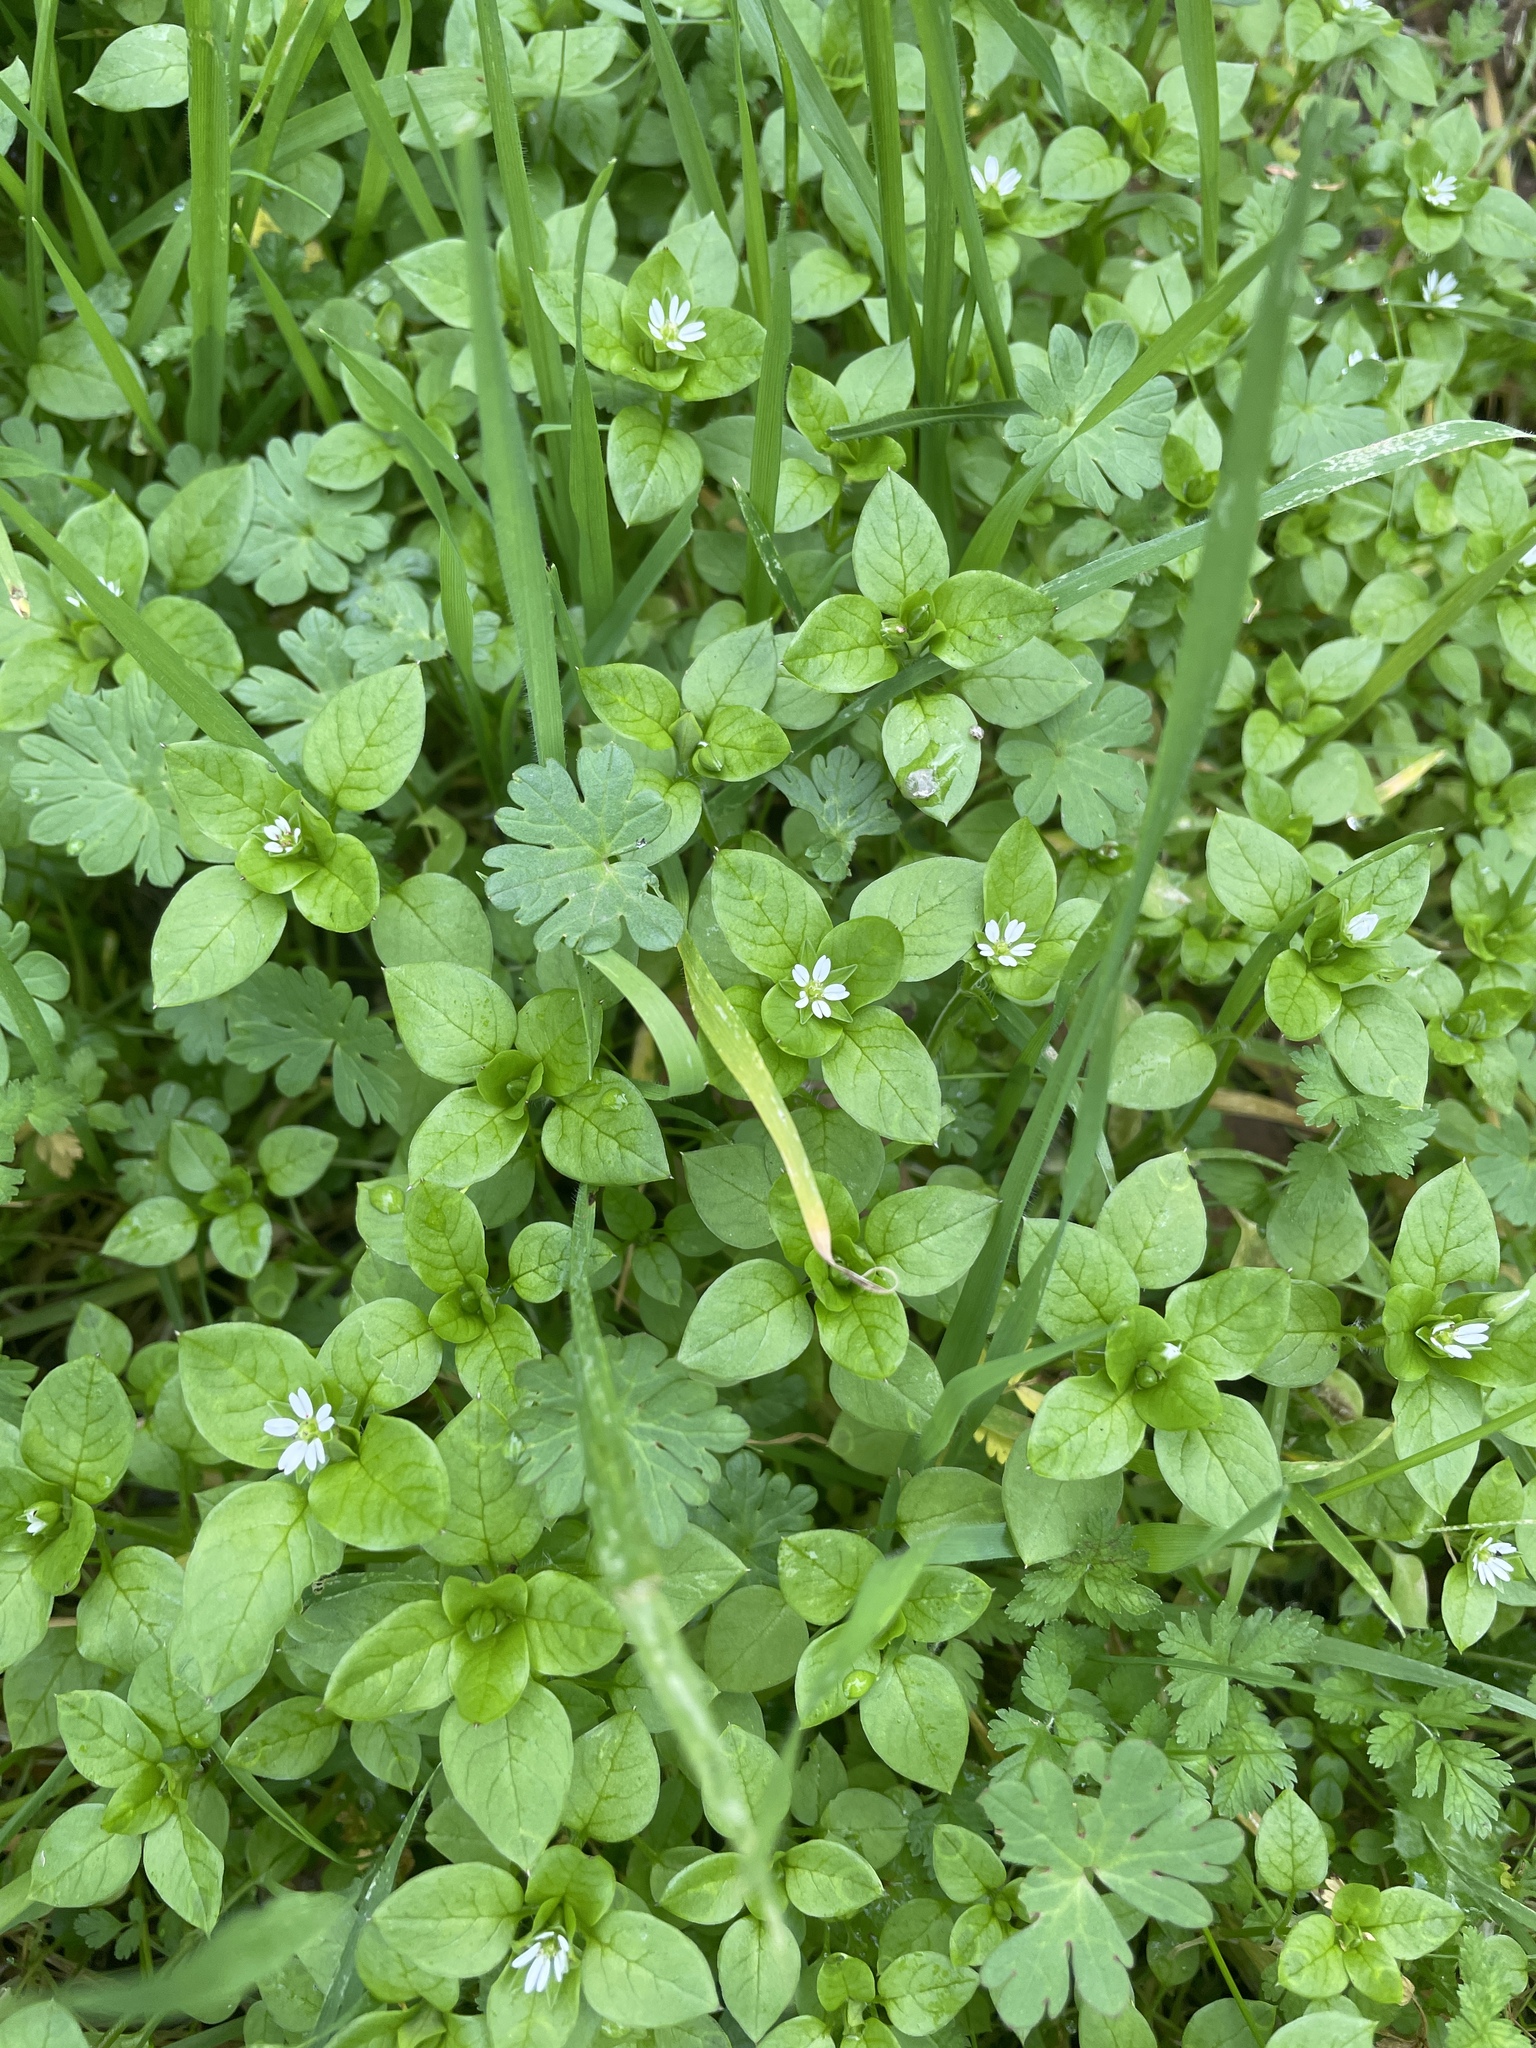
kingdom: Plantae
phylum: Tracheophyta
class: Magnoliopsida
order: Caryophyllales
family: Caryophyllaceae
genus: Stellaria
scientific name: Stellaria media
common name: Common chickweed
